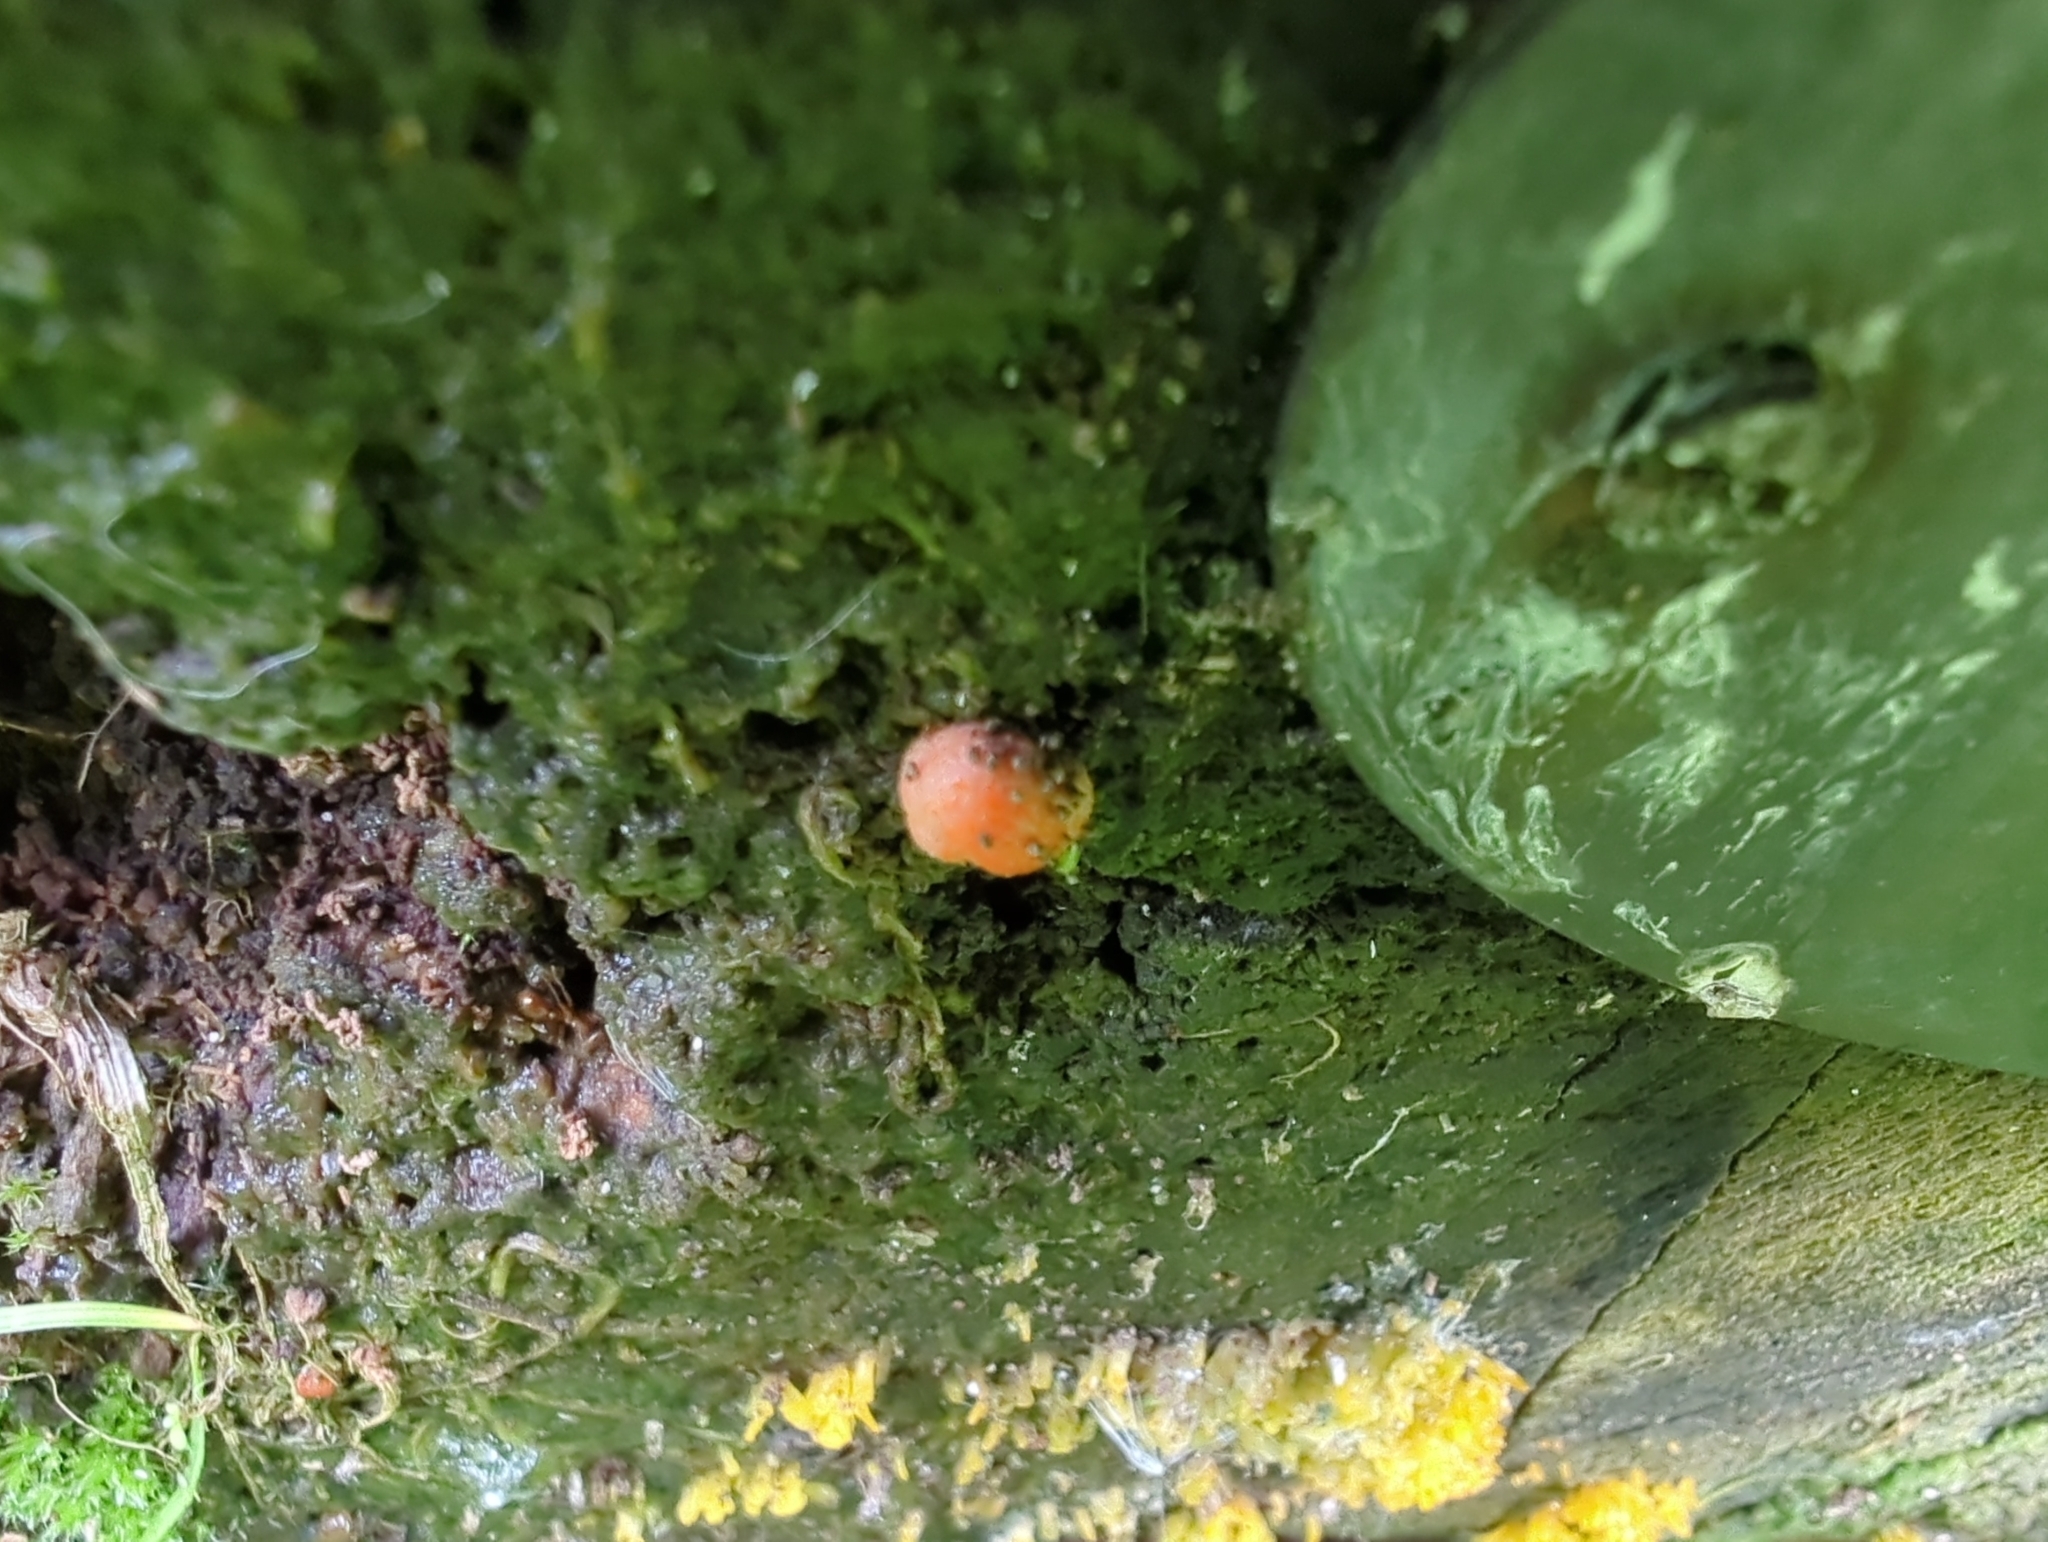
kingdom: Protozoa
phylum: Mycetozoa
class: Myxomycetes
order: Cribrariales
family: Tubiferaceae
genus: Lycogala
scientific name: Lycogala epidendrum
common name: Wolf's milk
